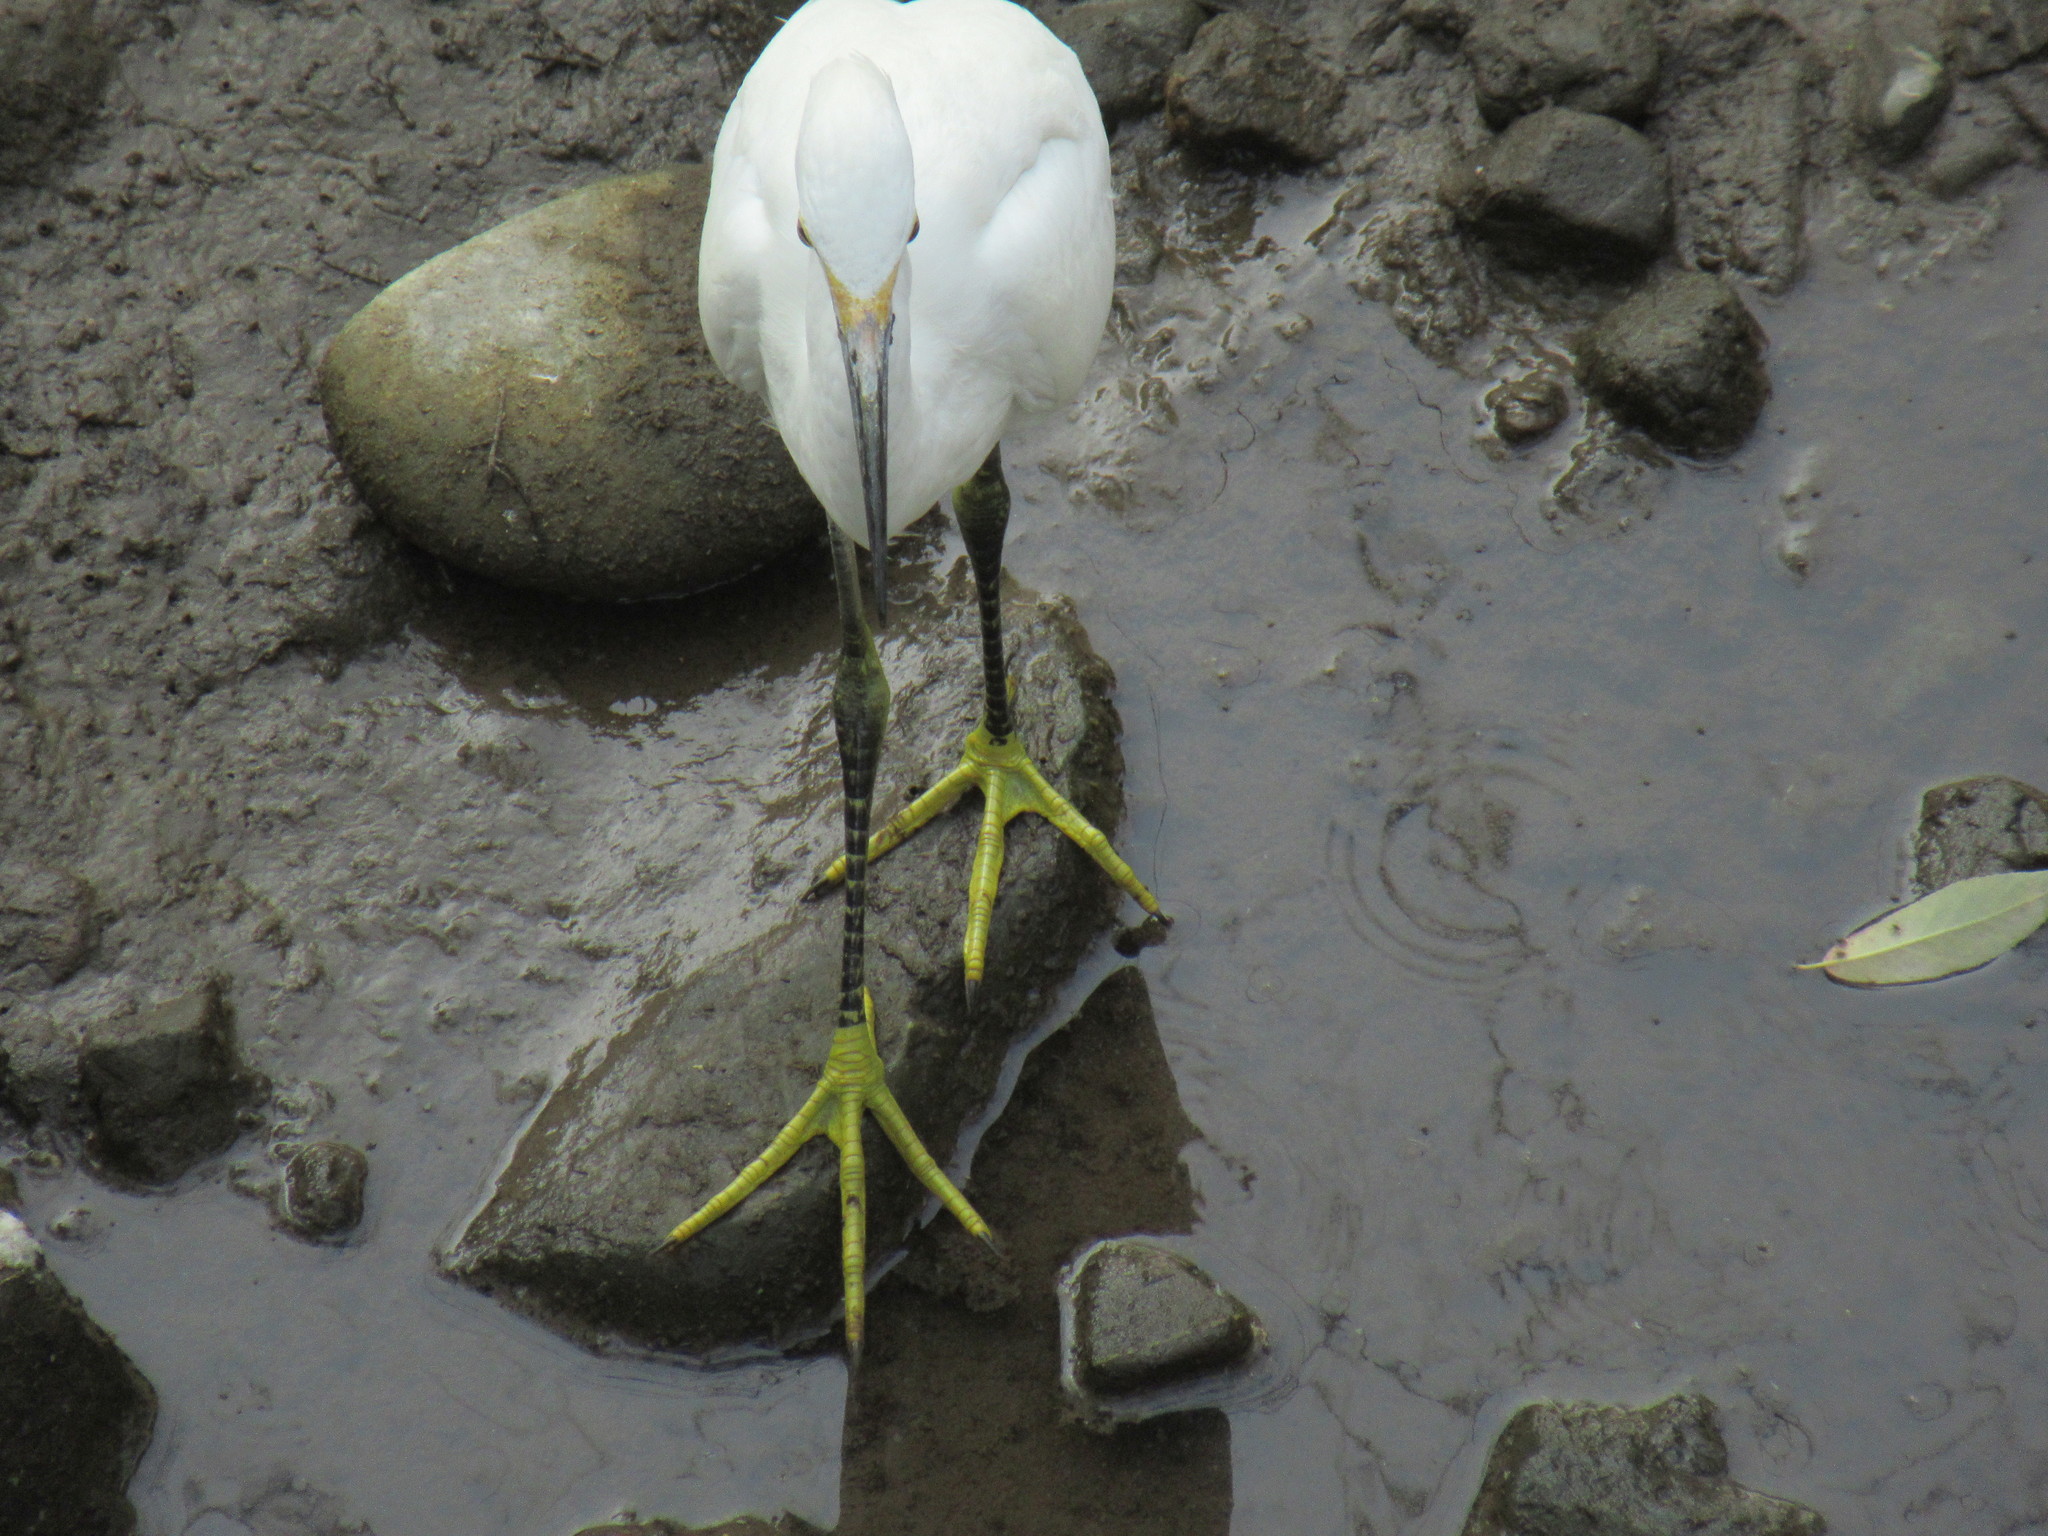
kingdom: Animalia
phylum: Chordata
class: Aves
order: Pelecaniformes
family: Ardeidae
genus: Egretta
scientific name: Egretta thula
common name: Snowy egret
